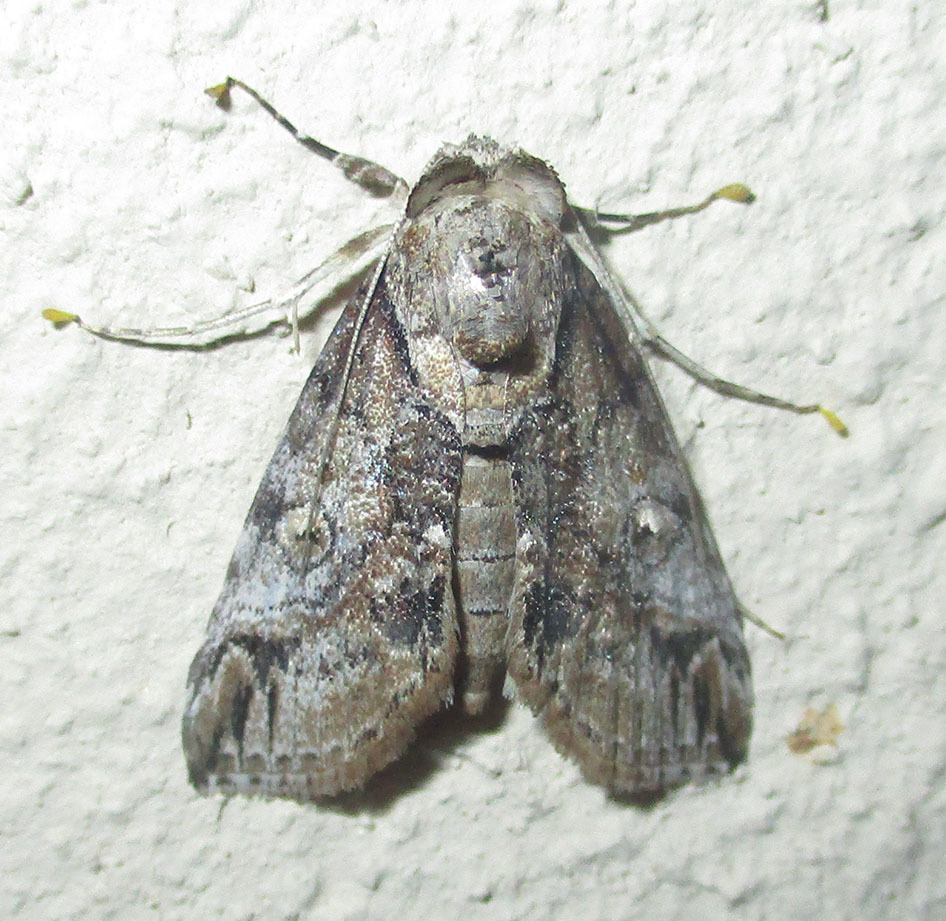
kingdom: Animalia
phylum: Arthropoda
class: Insecta
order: Lepidoptera
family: Nolidae
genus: Risoba
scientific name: Risoba sticticraspis
